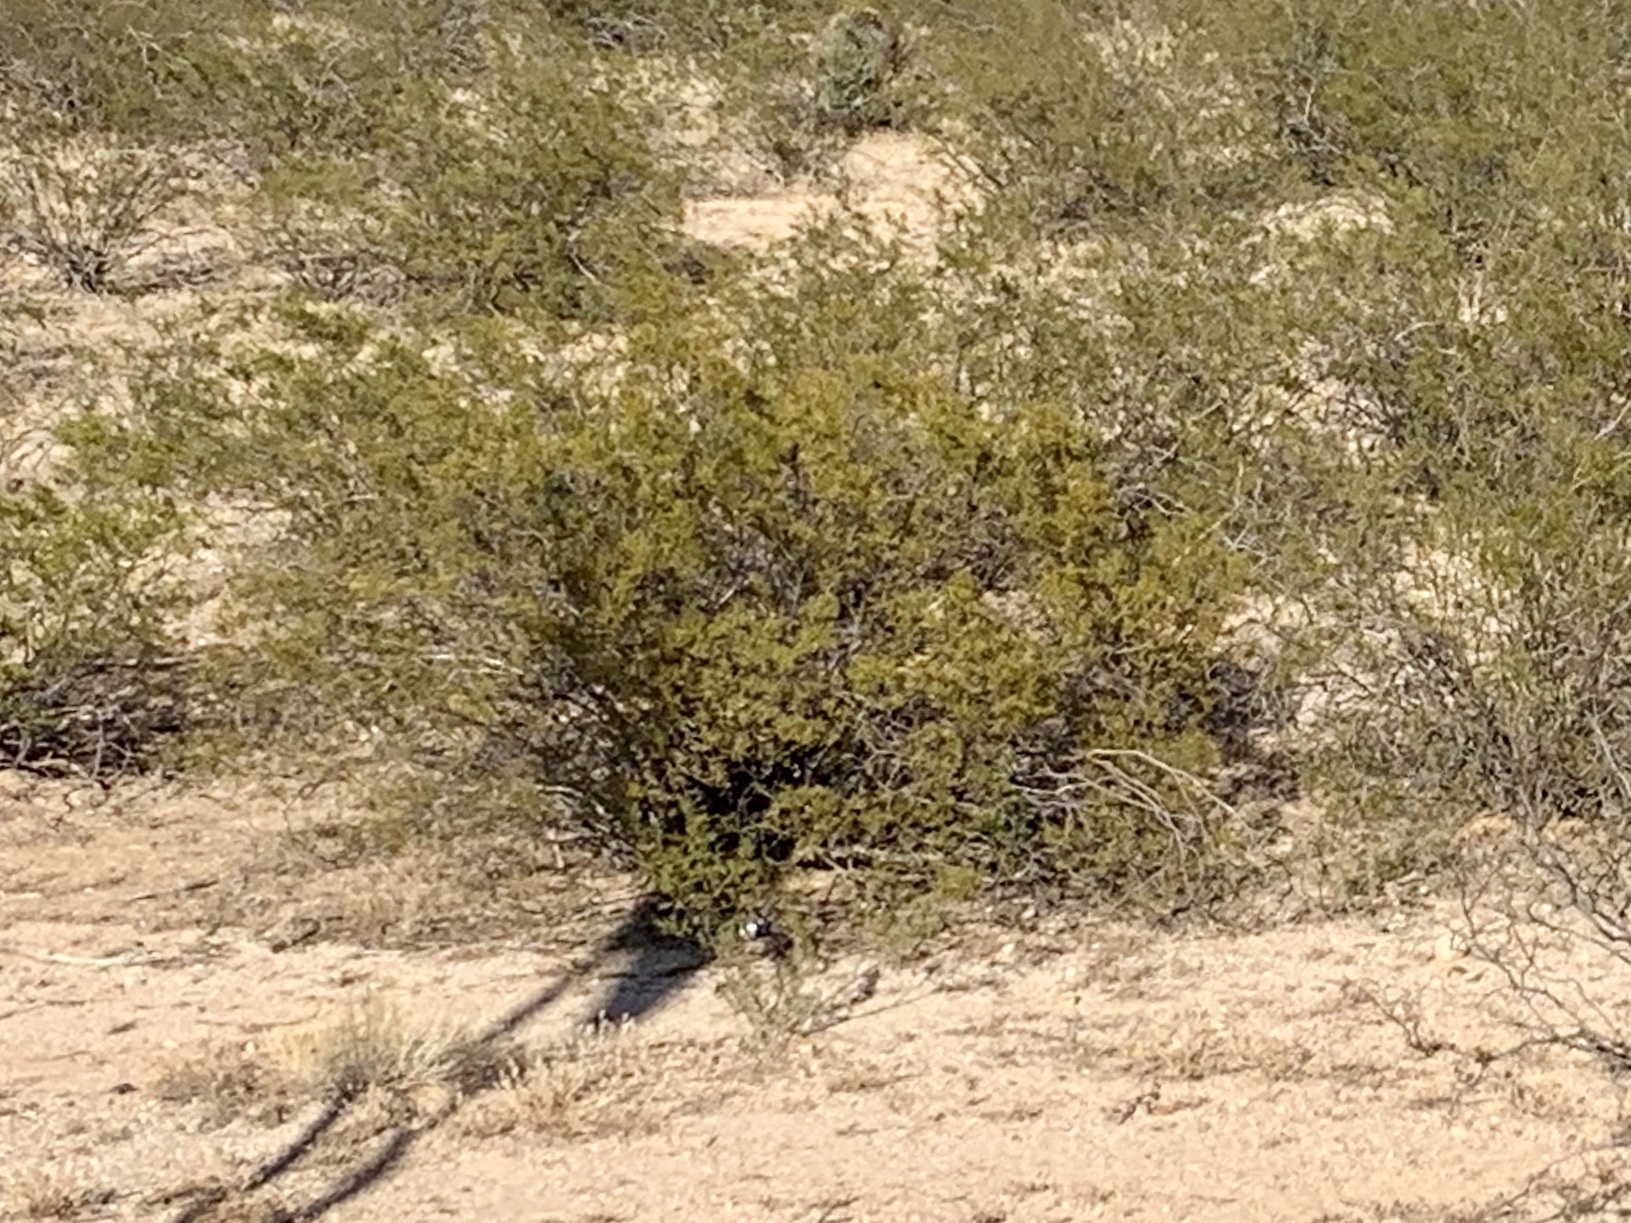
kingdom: Plantae
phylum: Tracheophyta
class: Magnoliopsida
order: Zygophyllales
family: Zygophyllaceae
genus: Larrea
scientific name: Larrea tridentata
